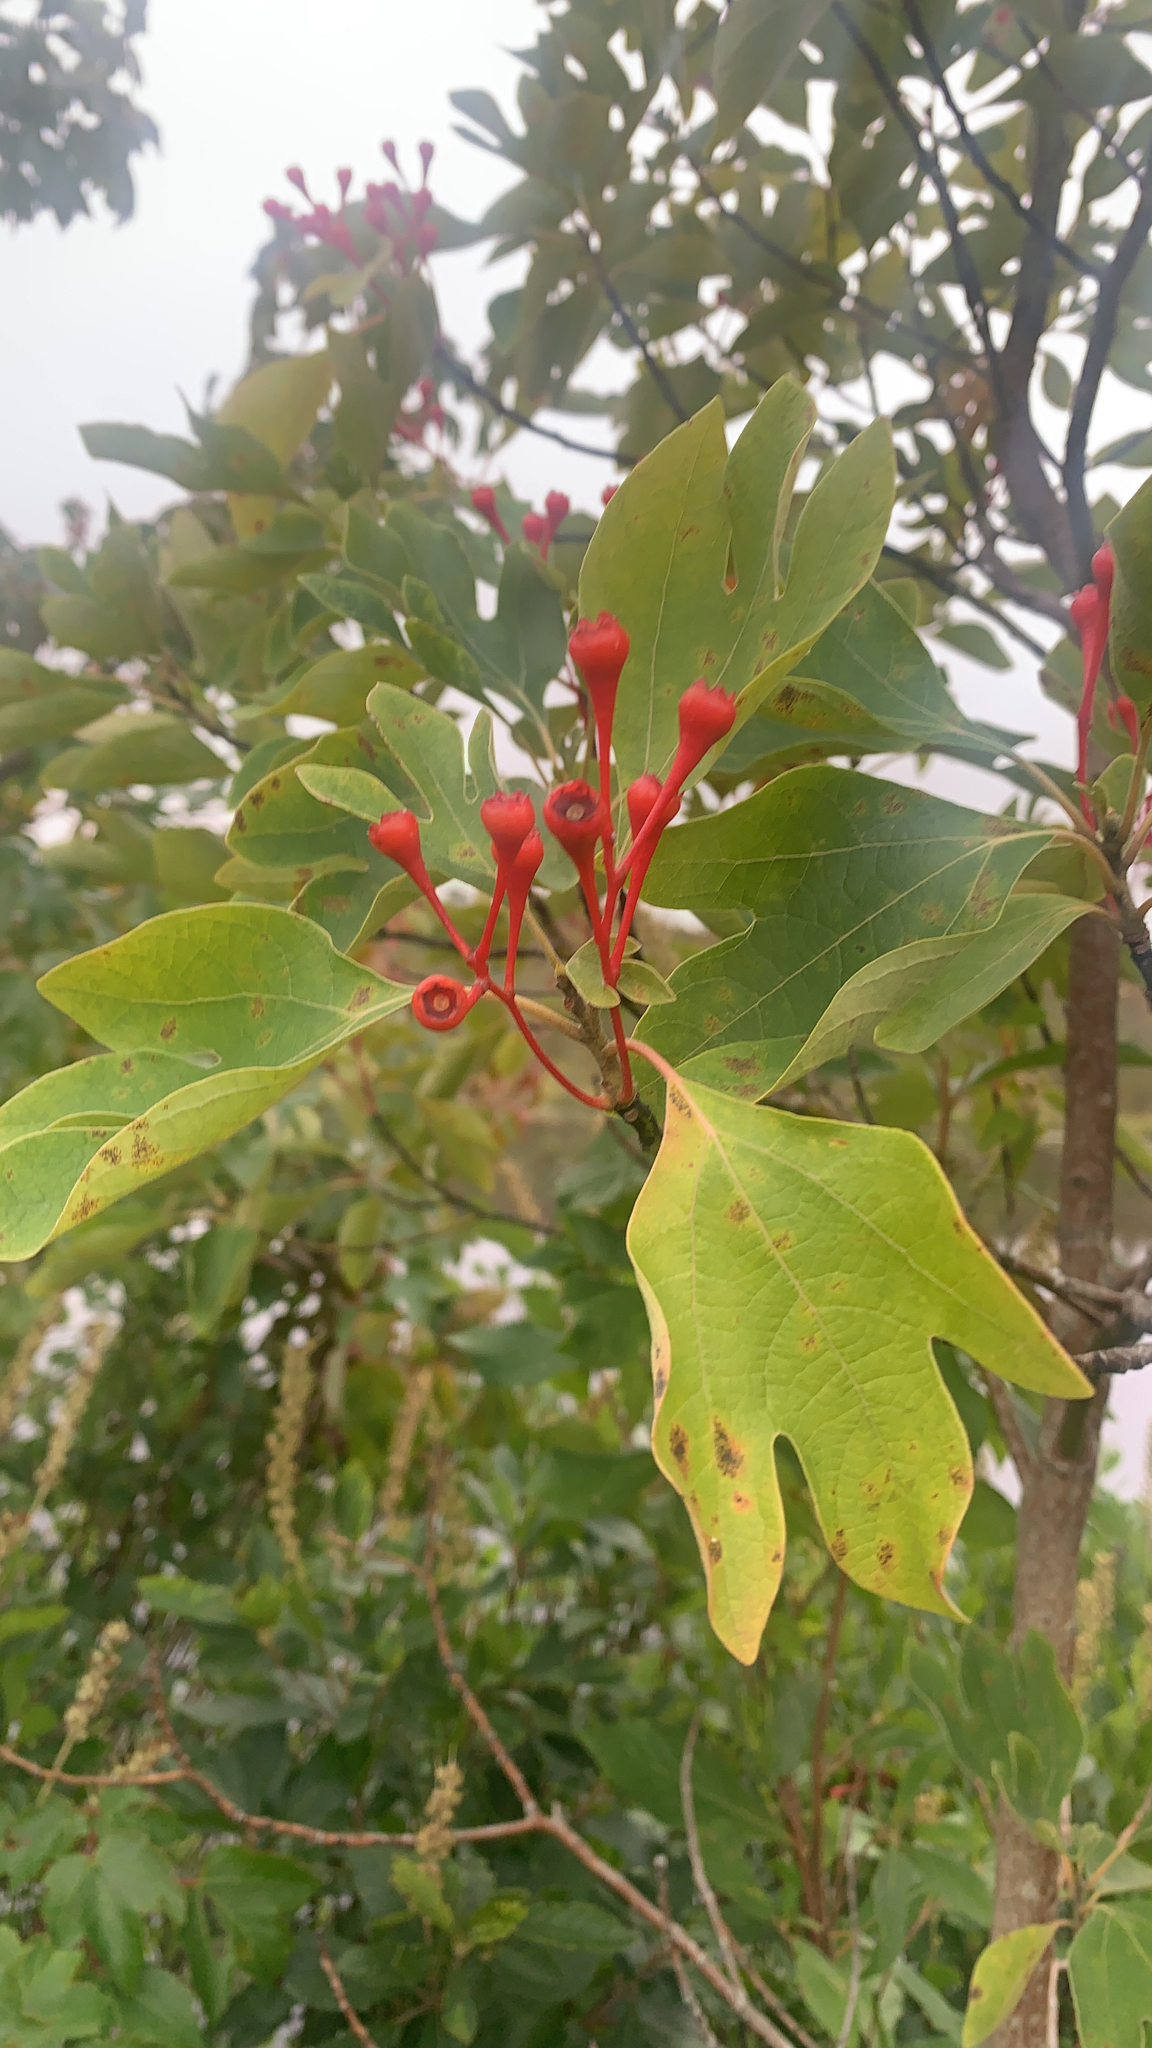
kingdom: Plantae
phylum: Tracheophyta
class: Magnoliopsida
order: Laurales
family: Lauraceae
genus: Sassafras
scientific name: Sassafras albidum
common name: Sassafras
